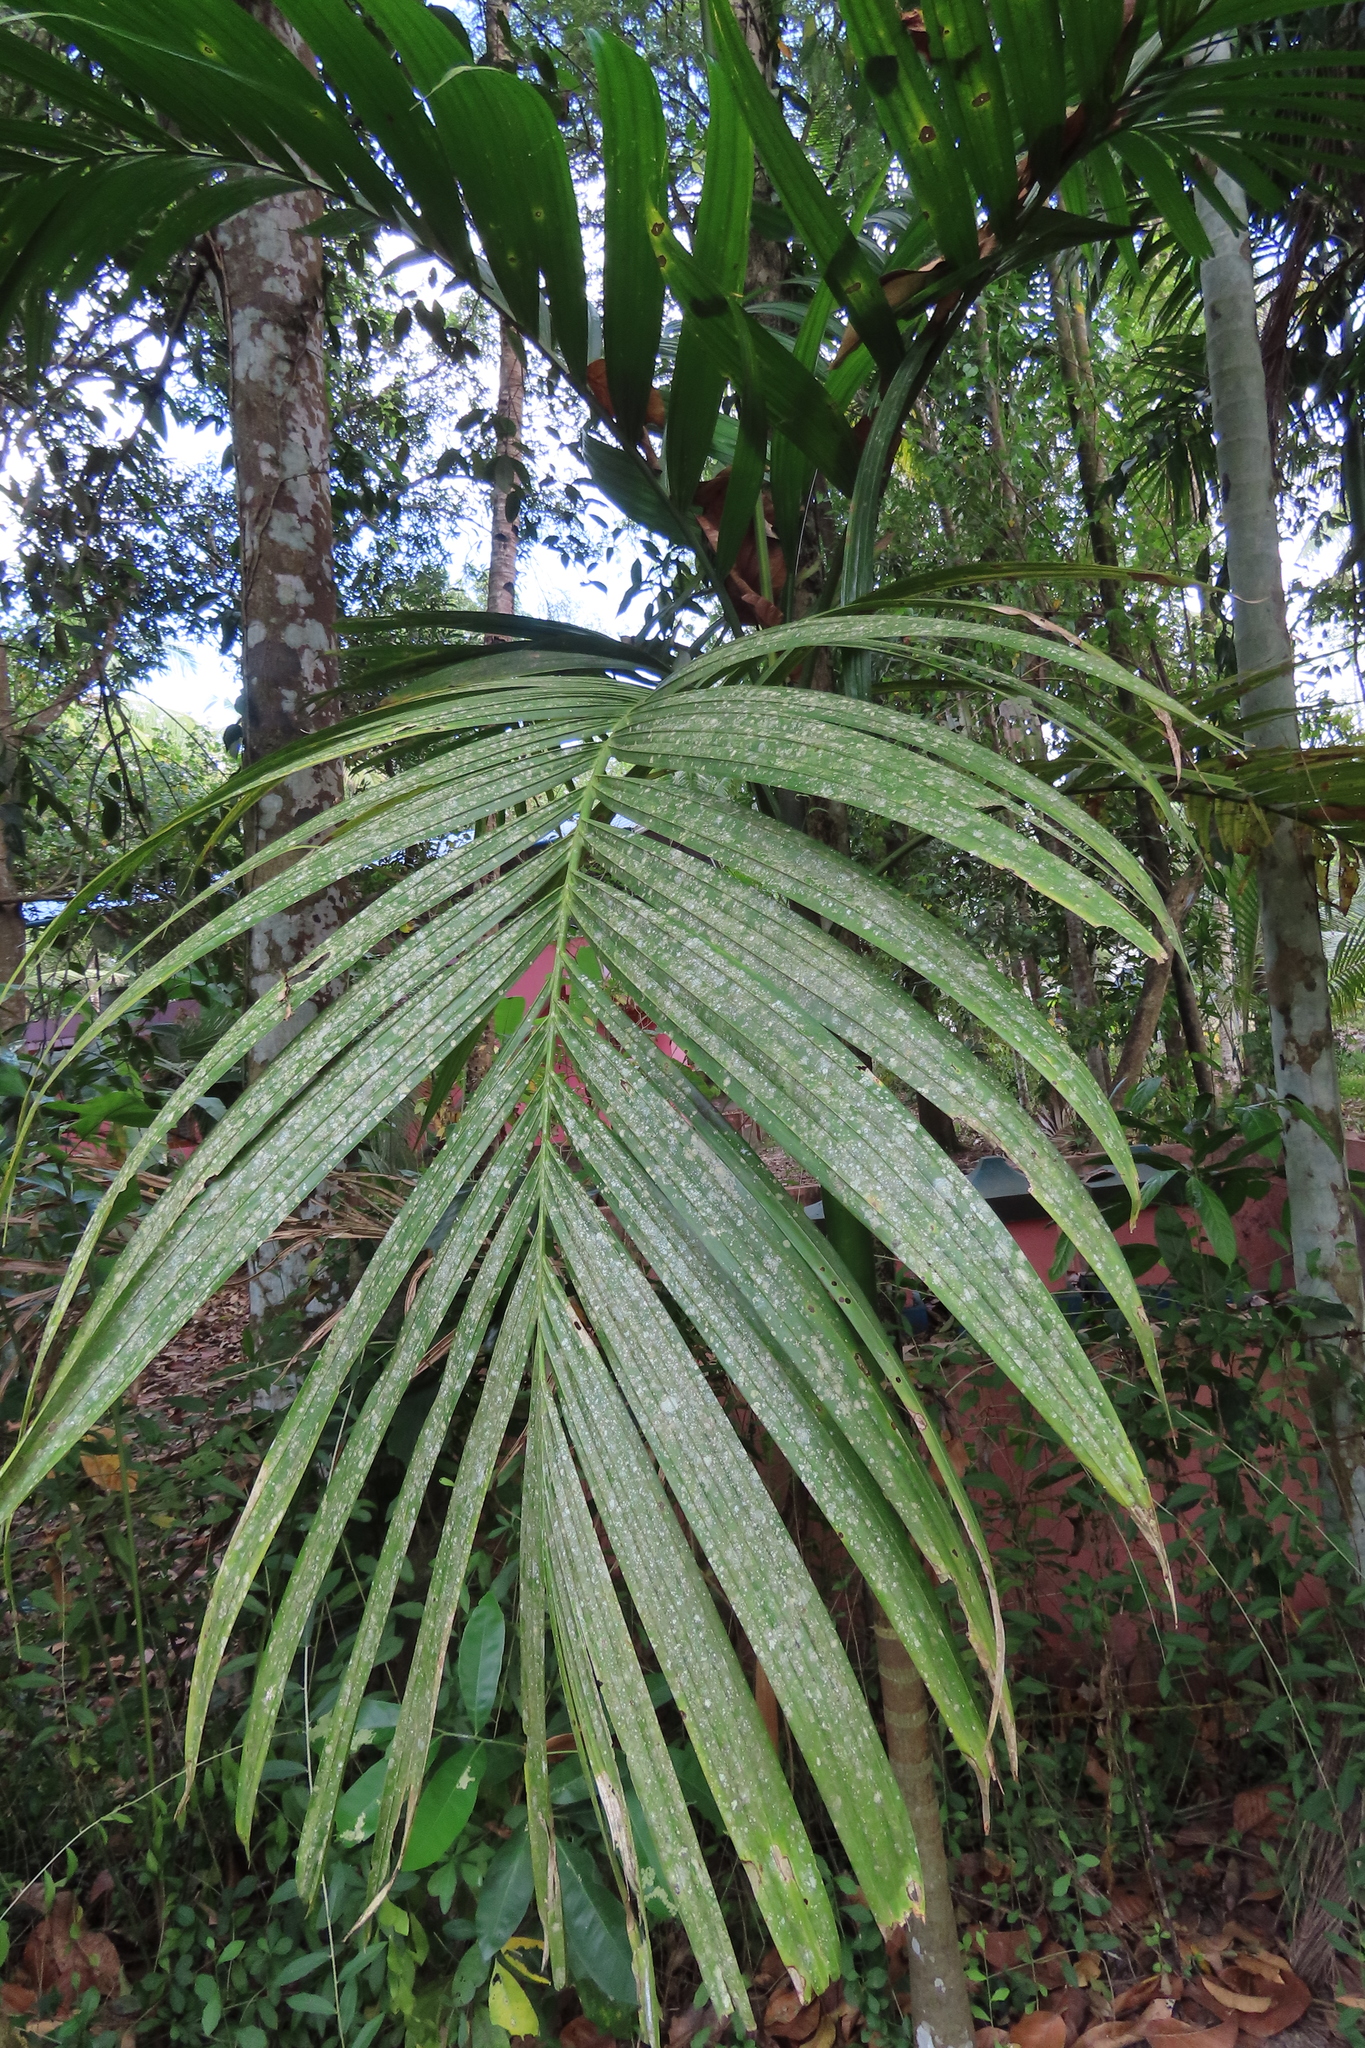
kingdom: Plantae
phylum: Tracheophyta
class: Liliopsida
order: Arecales
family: Arecaceae
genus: Areca
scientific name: Areca catechu
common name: Indian-nut
